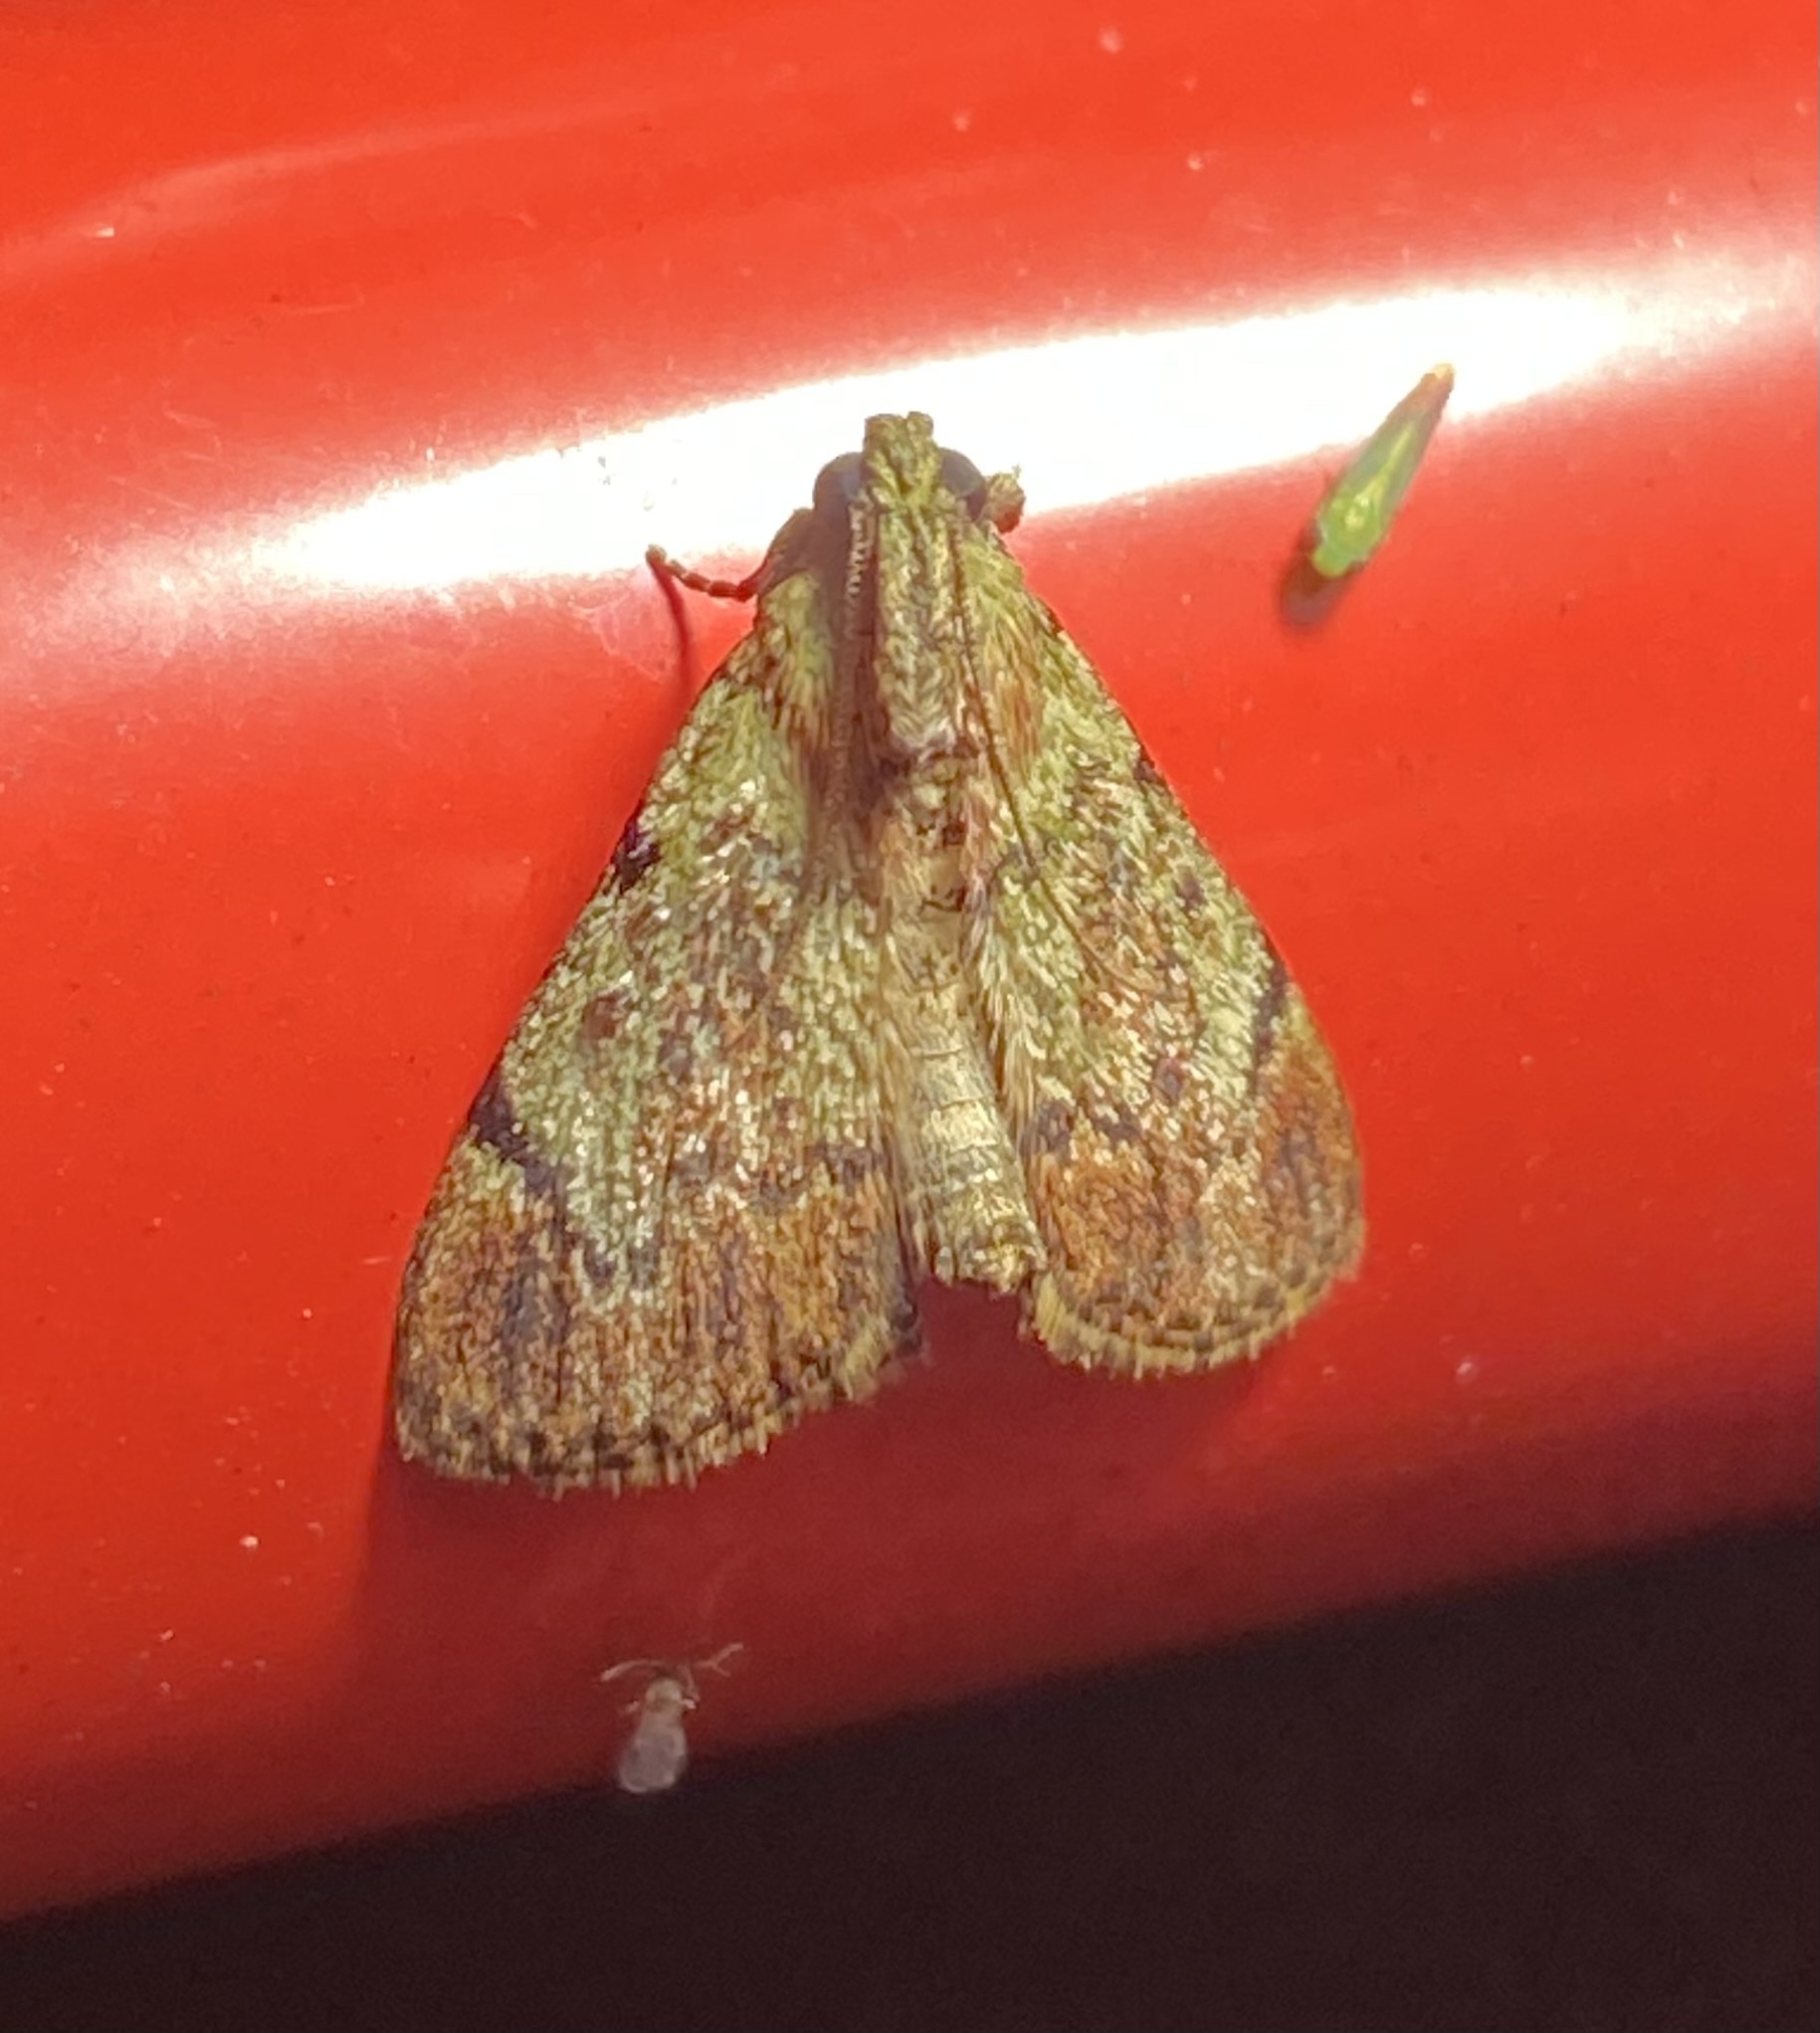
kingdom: Animalia
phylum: Arthropoda
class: Insecta
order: Lepidoptera
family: Pyralidae
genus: Epipaschia
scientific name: Epipaschia superatalis
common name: Dimorphic macalla moth
